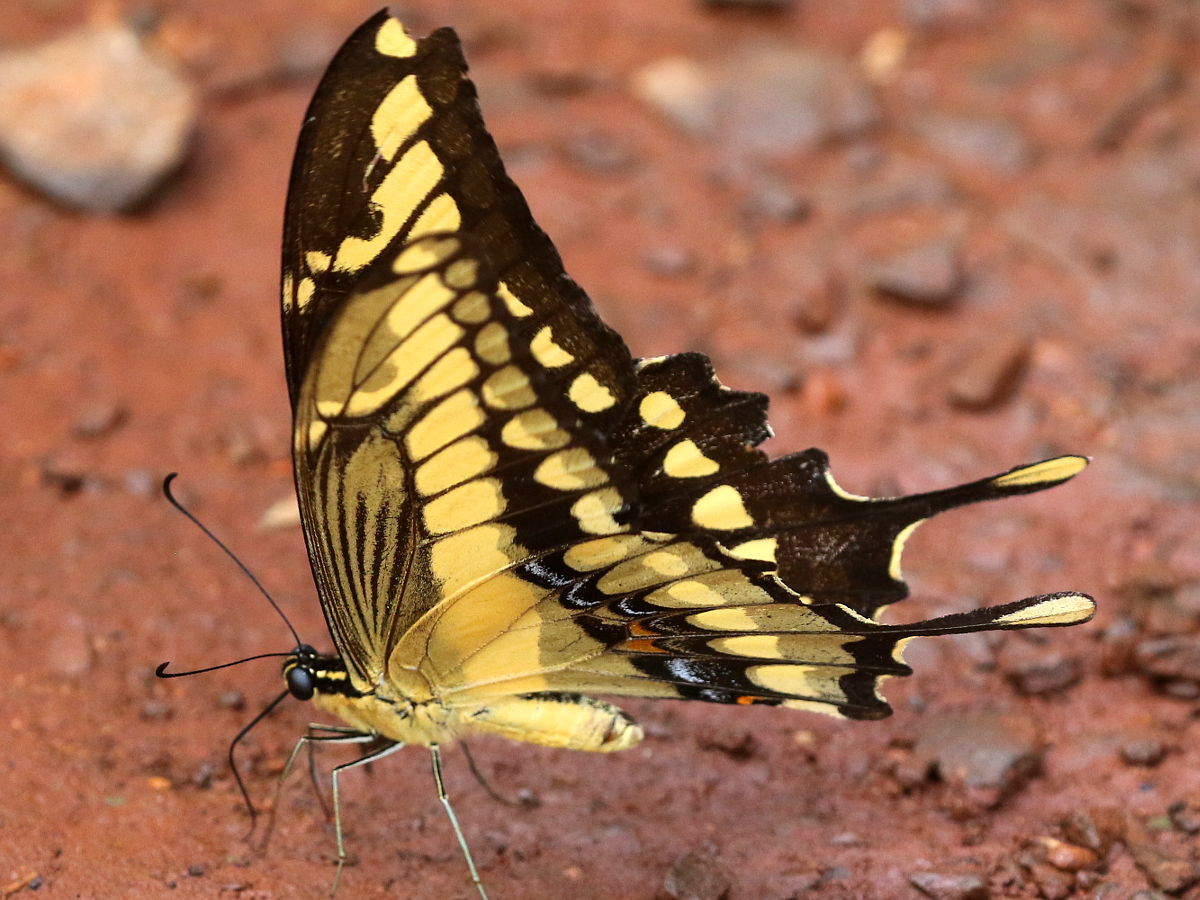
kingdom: Animalia
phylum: Arthropoda
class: Insecta
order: Lepidoptera
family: Papilionidae
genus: Papilio
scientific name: Papilio thoas
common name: King swallowtail
